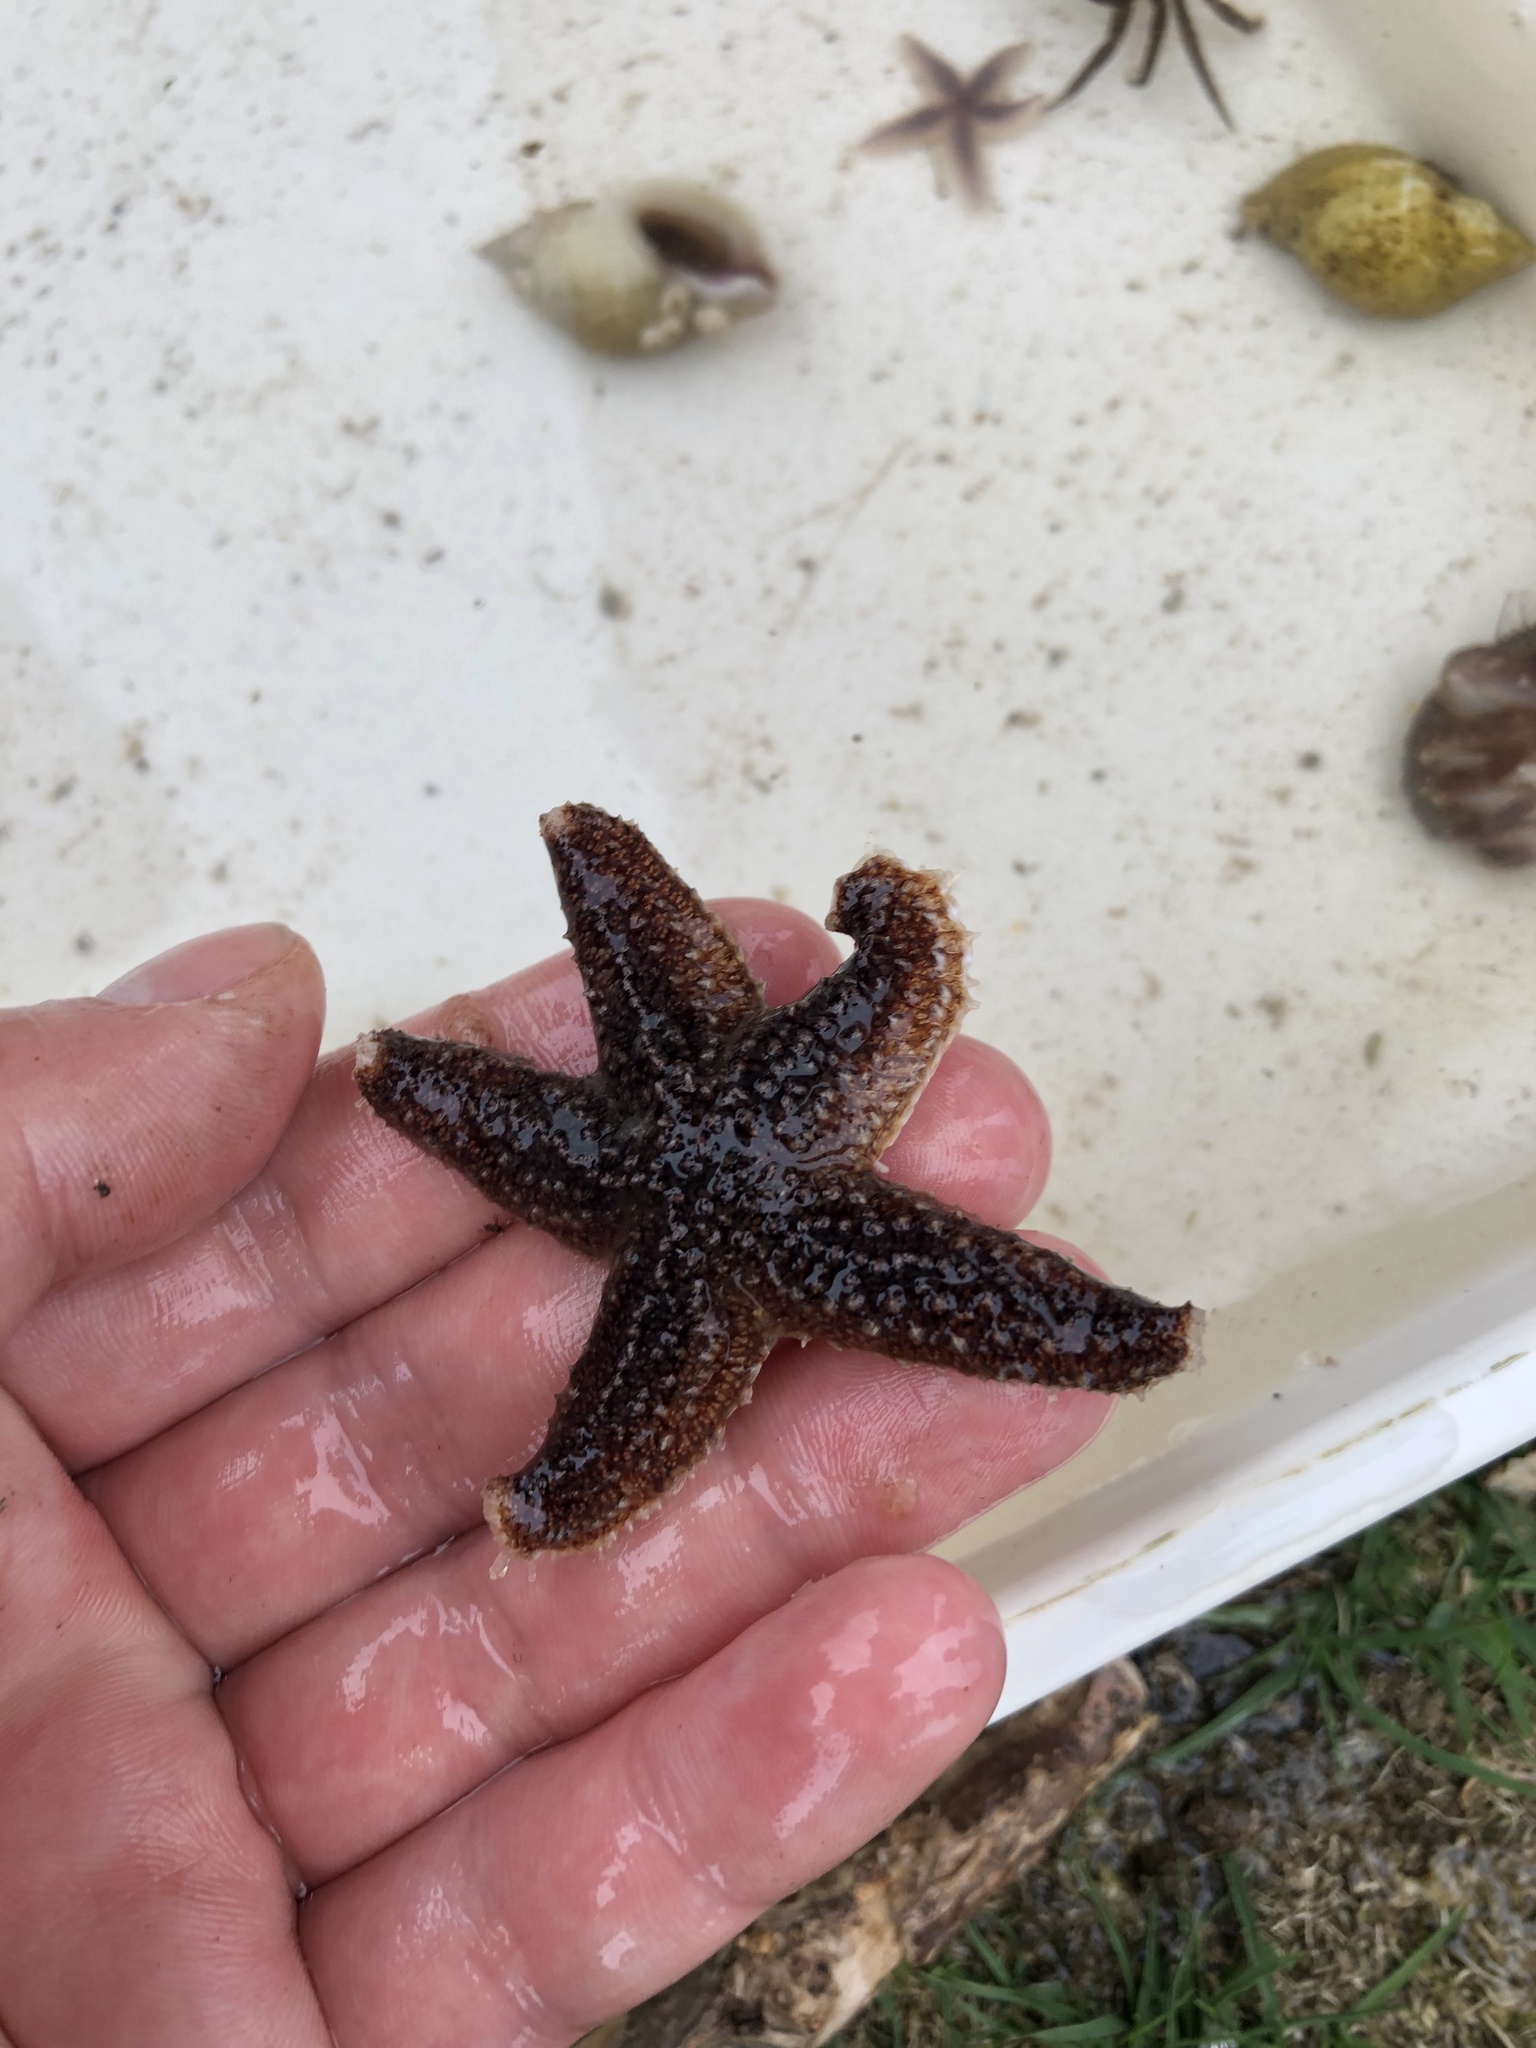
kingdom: Animalia
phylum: Echinodermata
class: Asteroidea
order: Forcipulatida
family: Asteriidae
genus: Asterias
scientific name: Asterias rubens
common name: Common starfish
